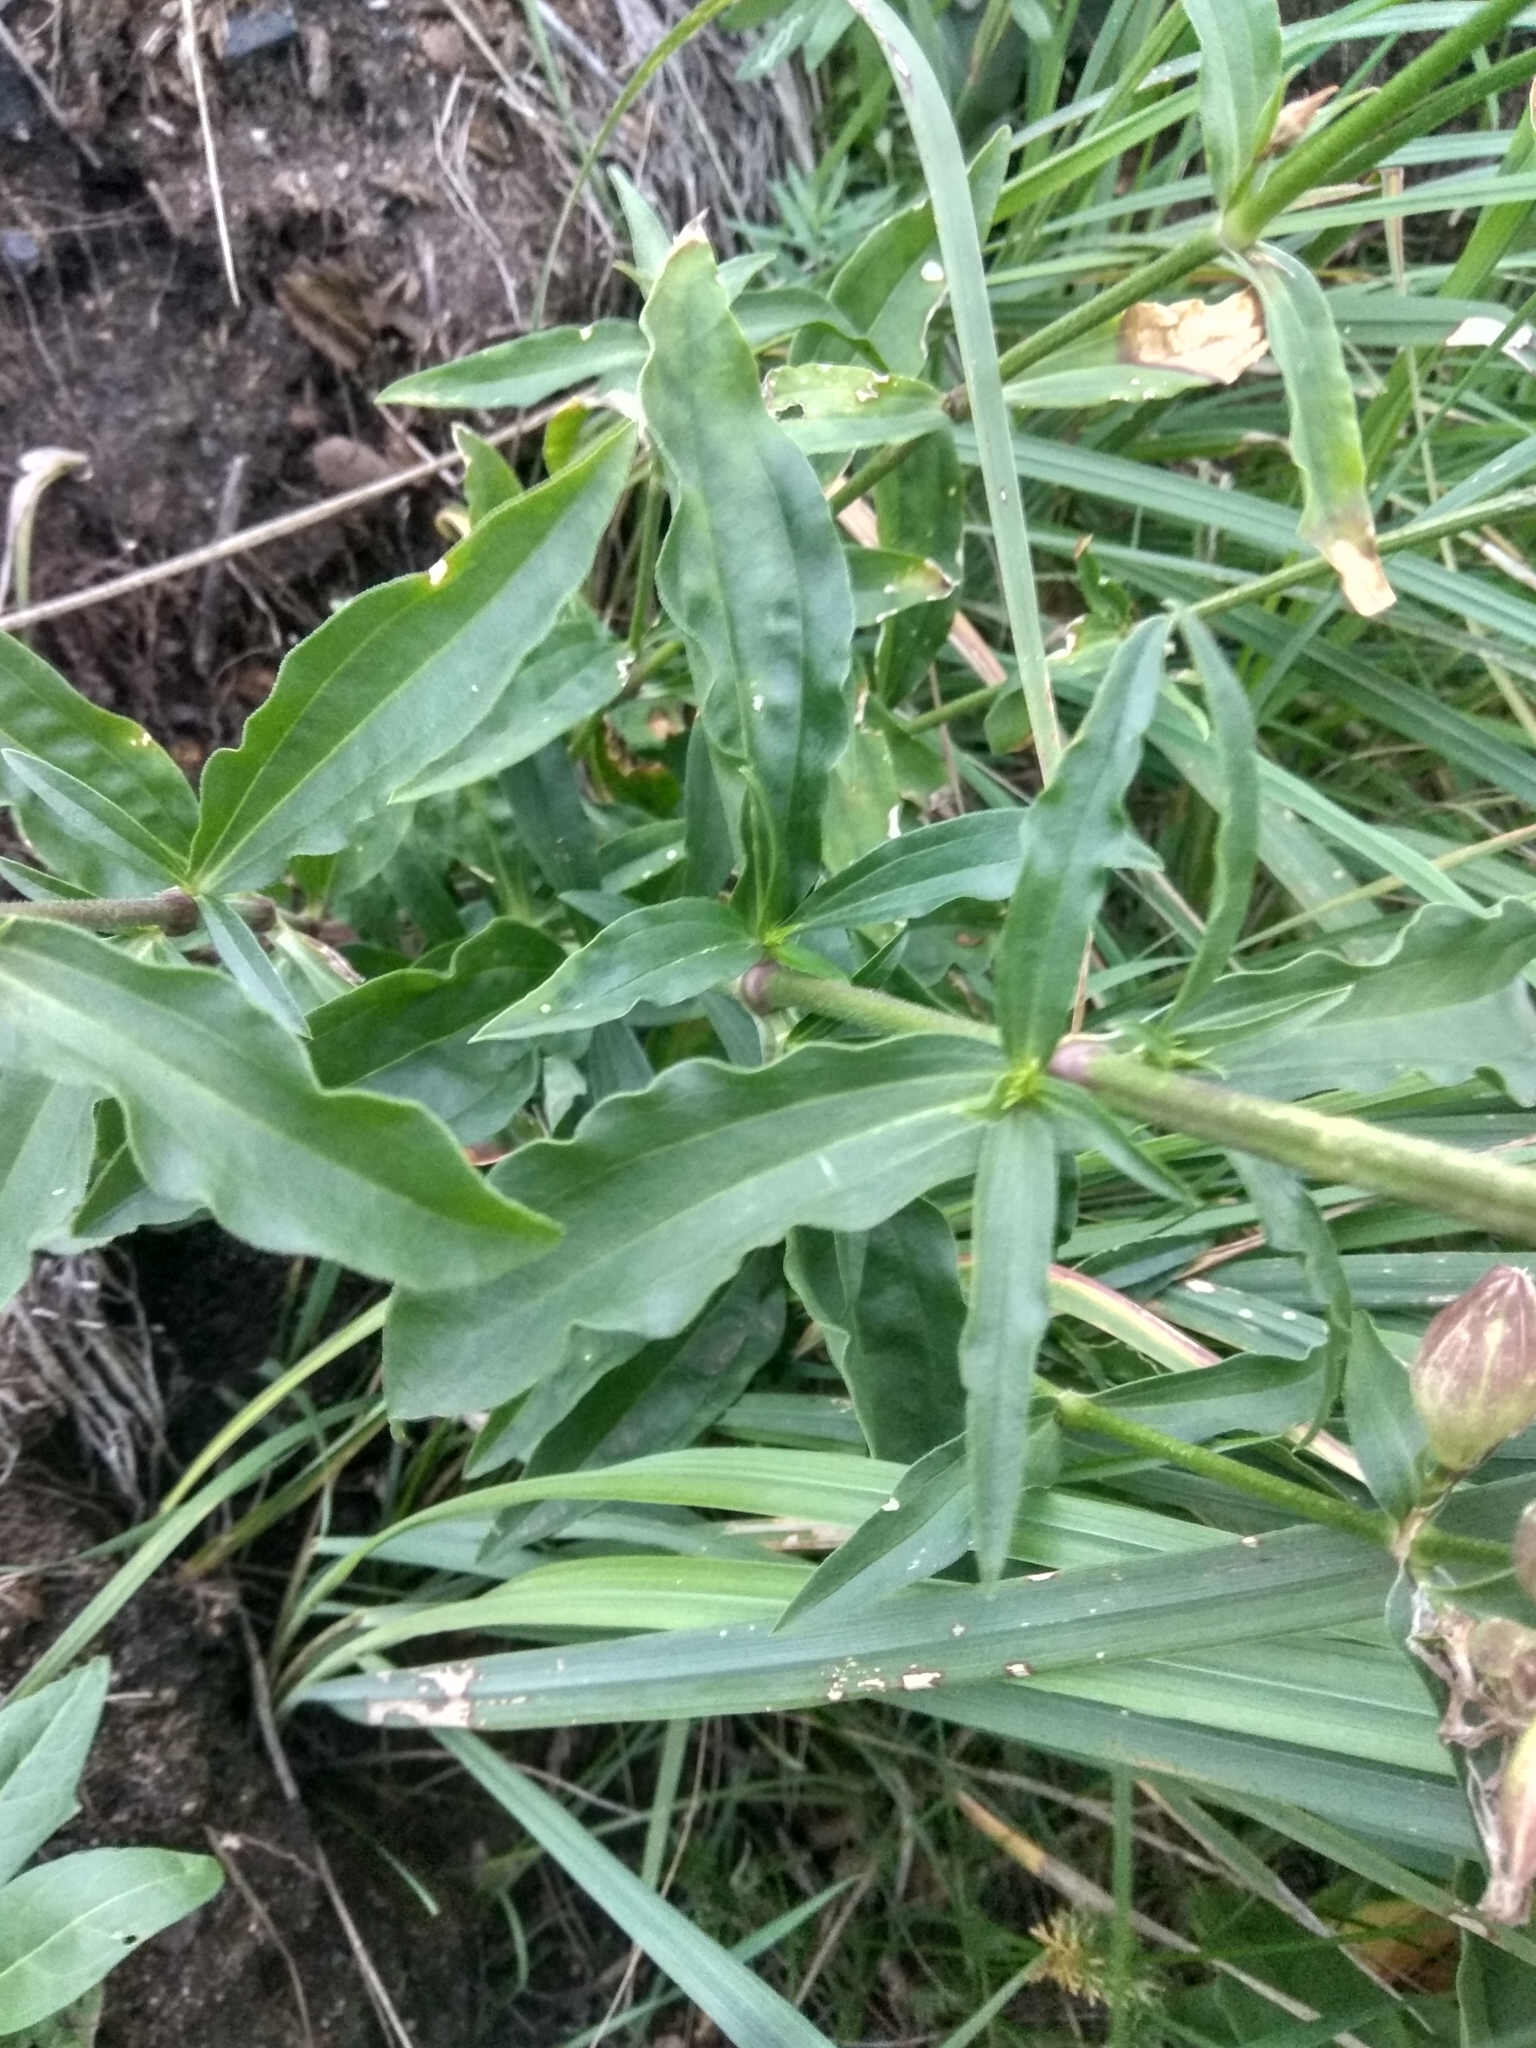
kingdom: Plantae
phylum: Tracheophyta
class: Magnoliopsida
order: Caryophyllales
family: Caryophyllaceae
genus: Saponaria
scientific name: Saponaria officinalis
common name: Soapwort
